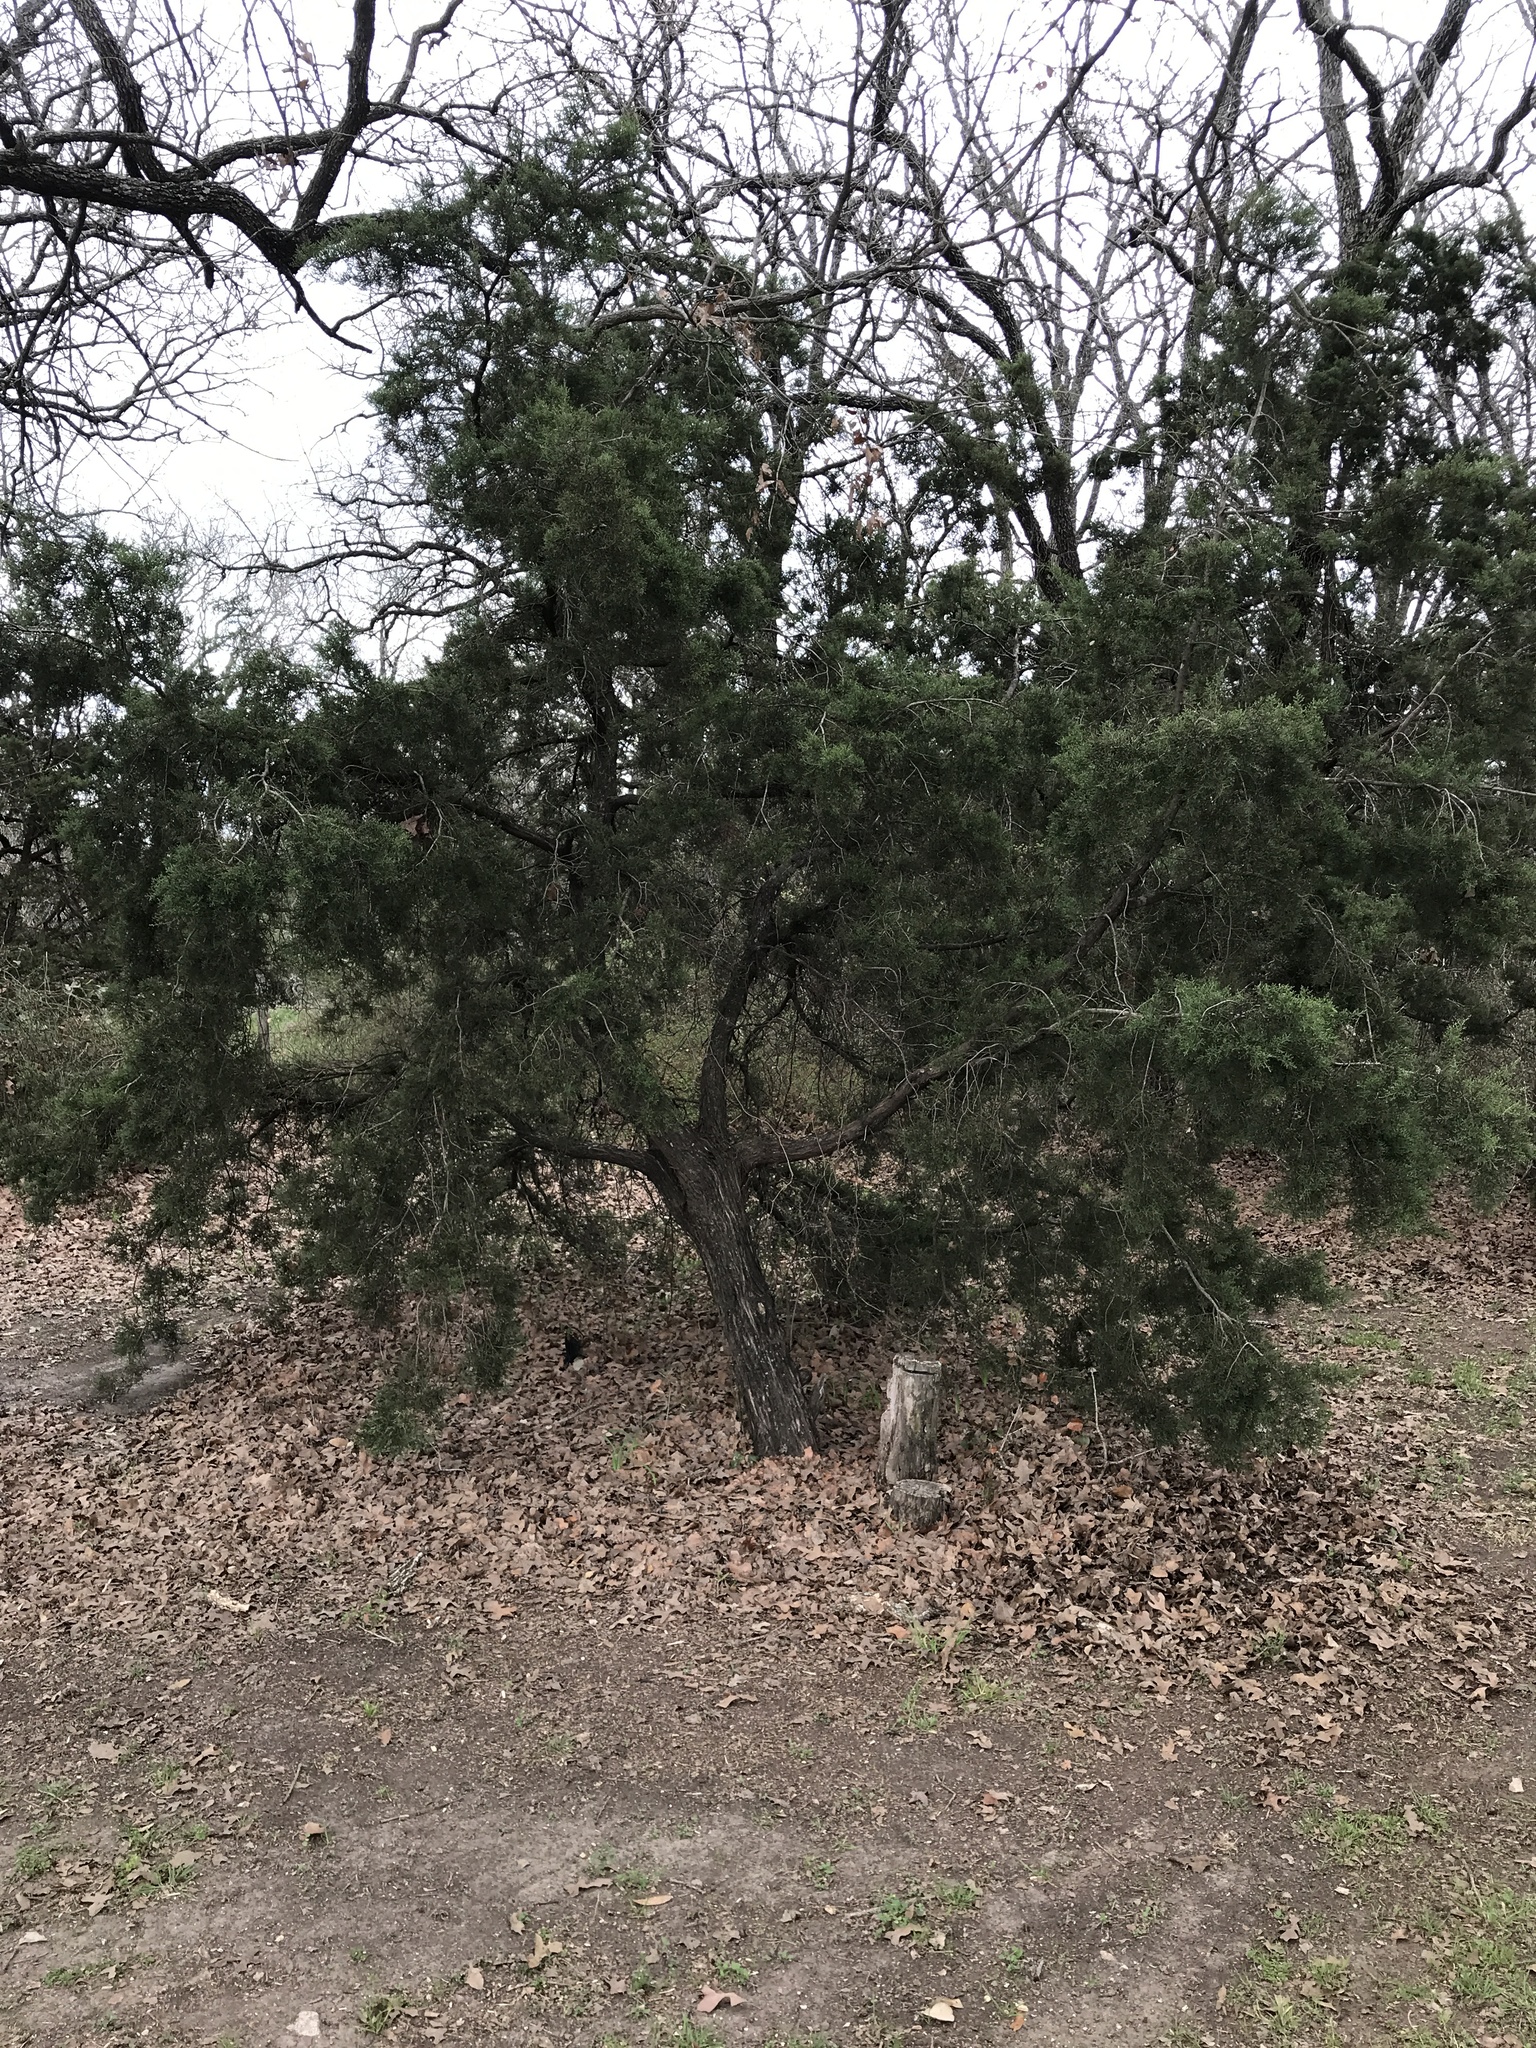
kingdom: Plantae
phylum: Tracheophyta
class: Pinopsida
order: Pinales
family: Cupressaceae
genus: Juniperus
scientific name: Juniperus ashei
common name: Mexican juniper
